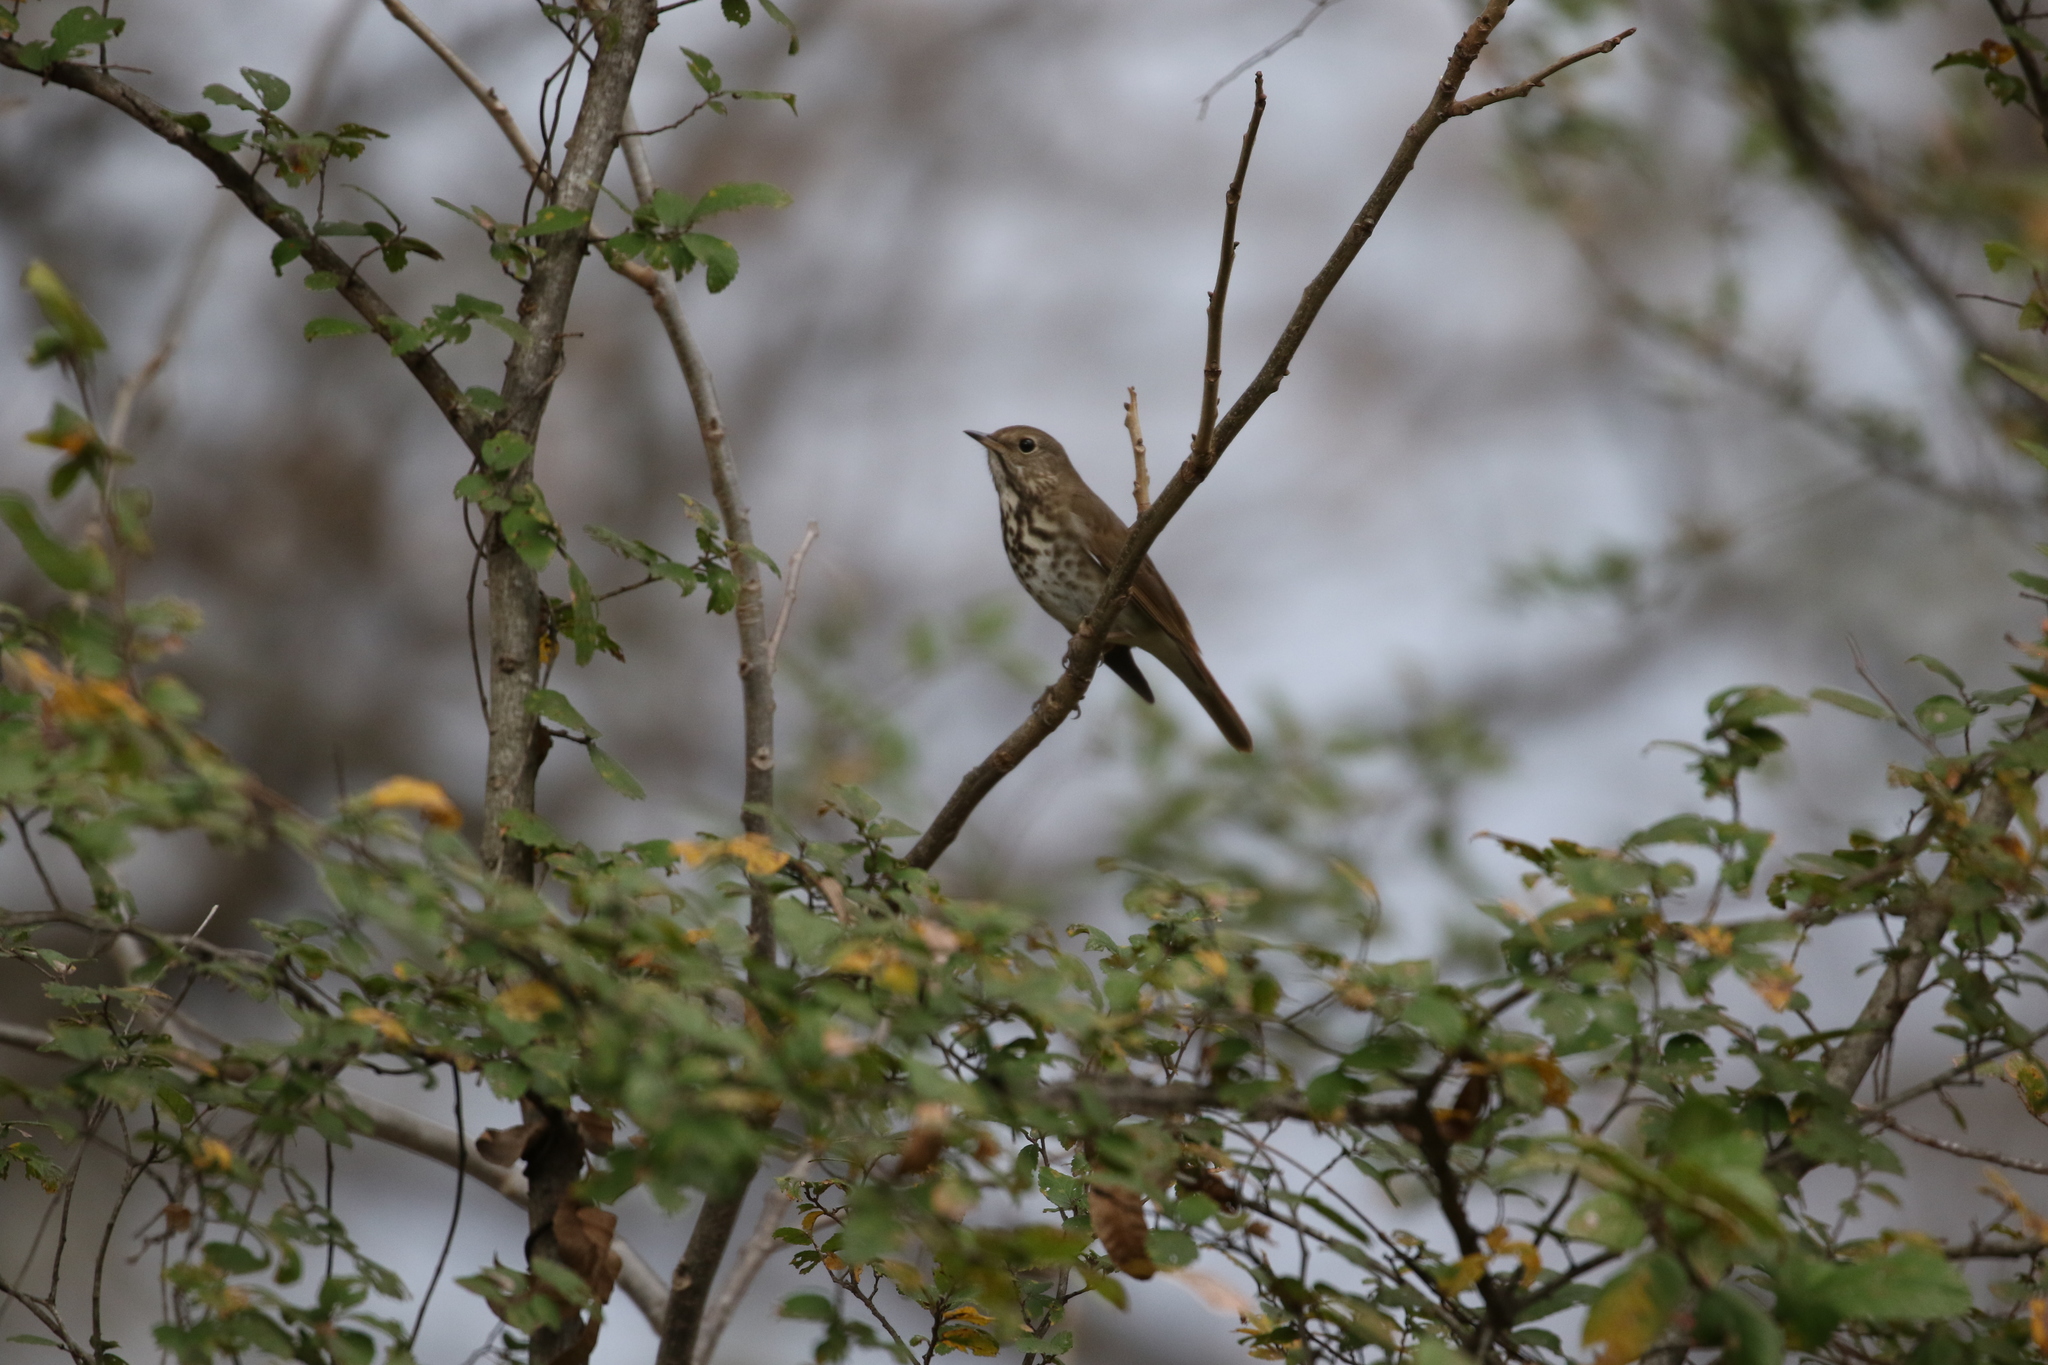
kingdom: Animalia
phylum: Chordata
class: Aves
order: Passeriformes
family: Turdidae
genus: Catharus
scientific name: Catharus guttatus
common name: Hermit thrush
